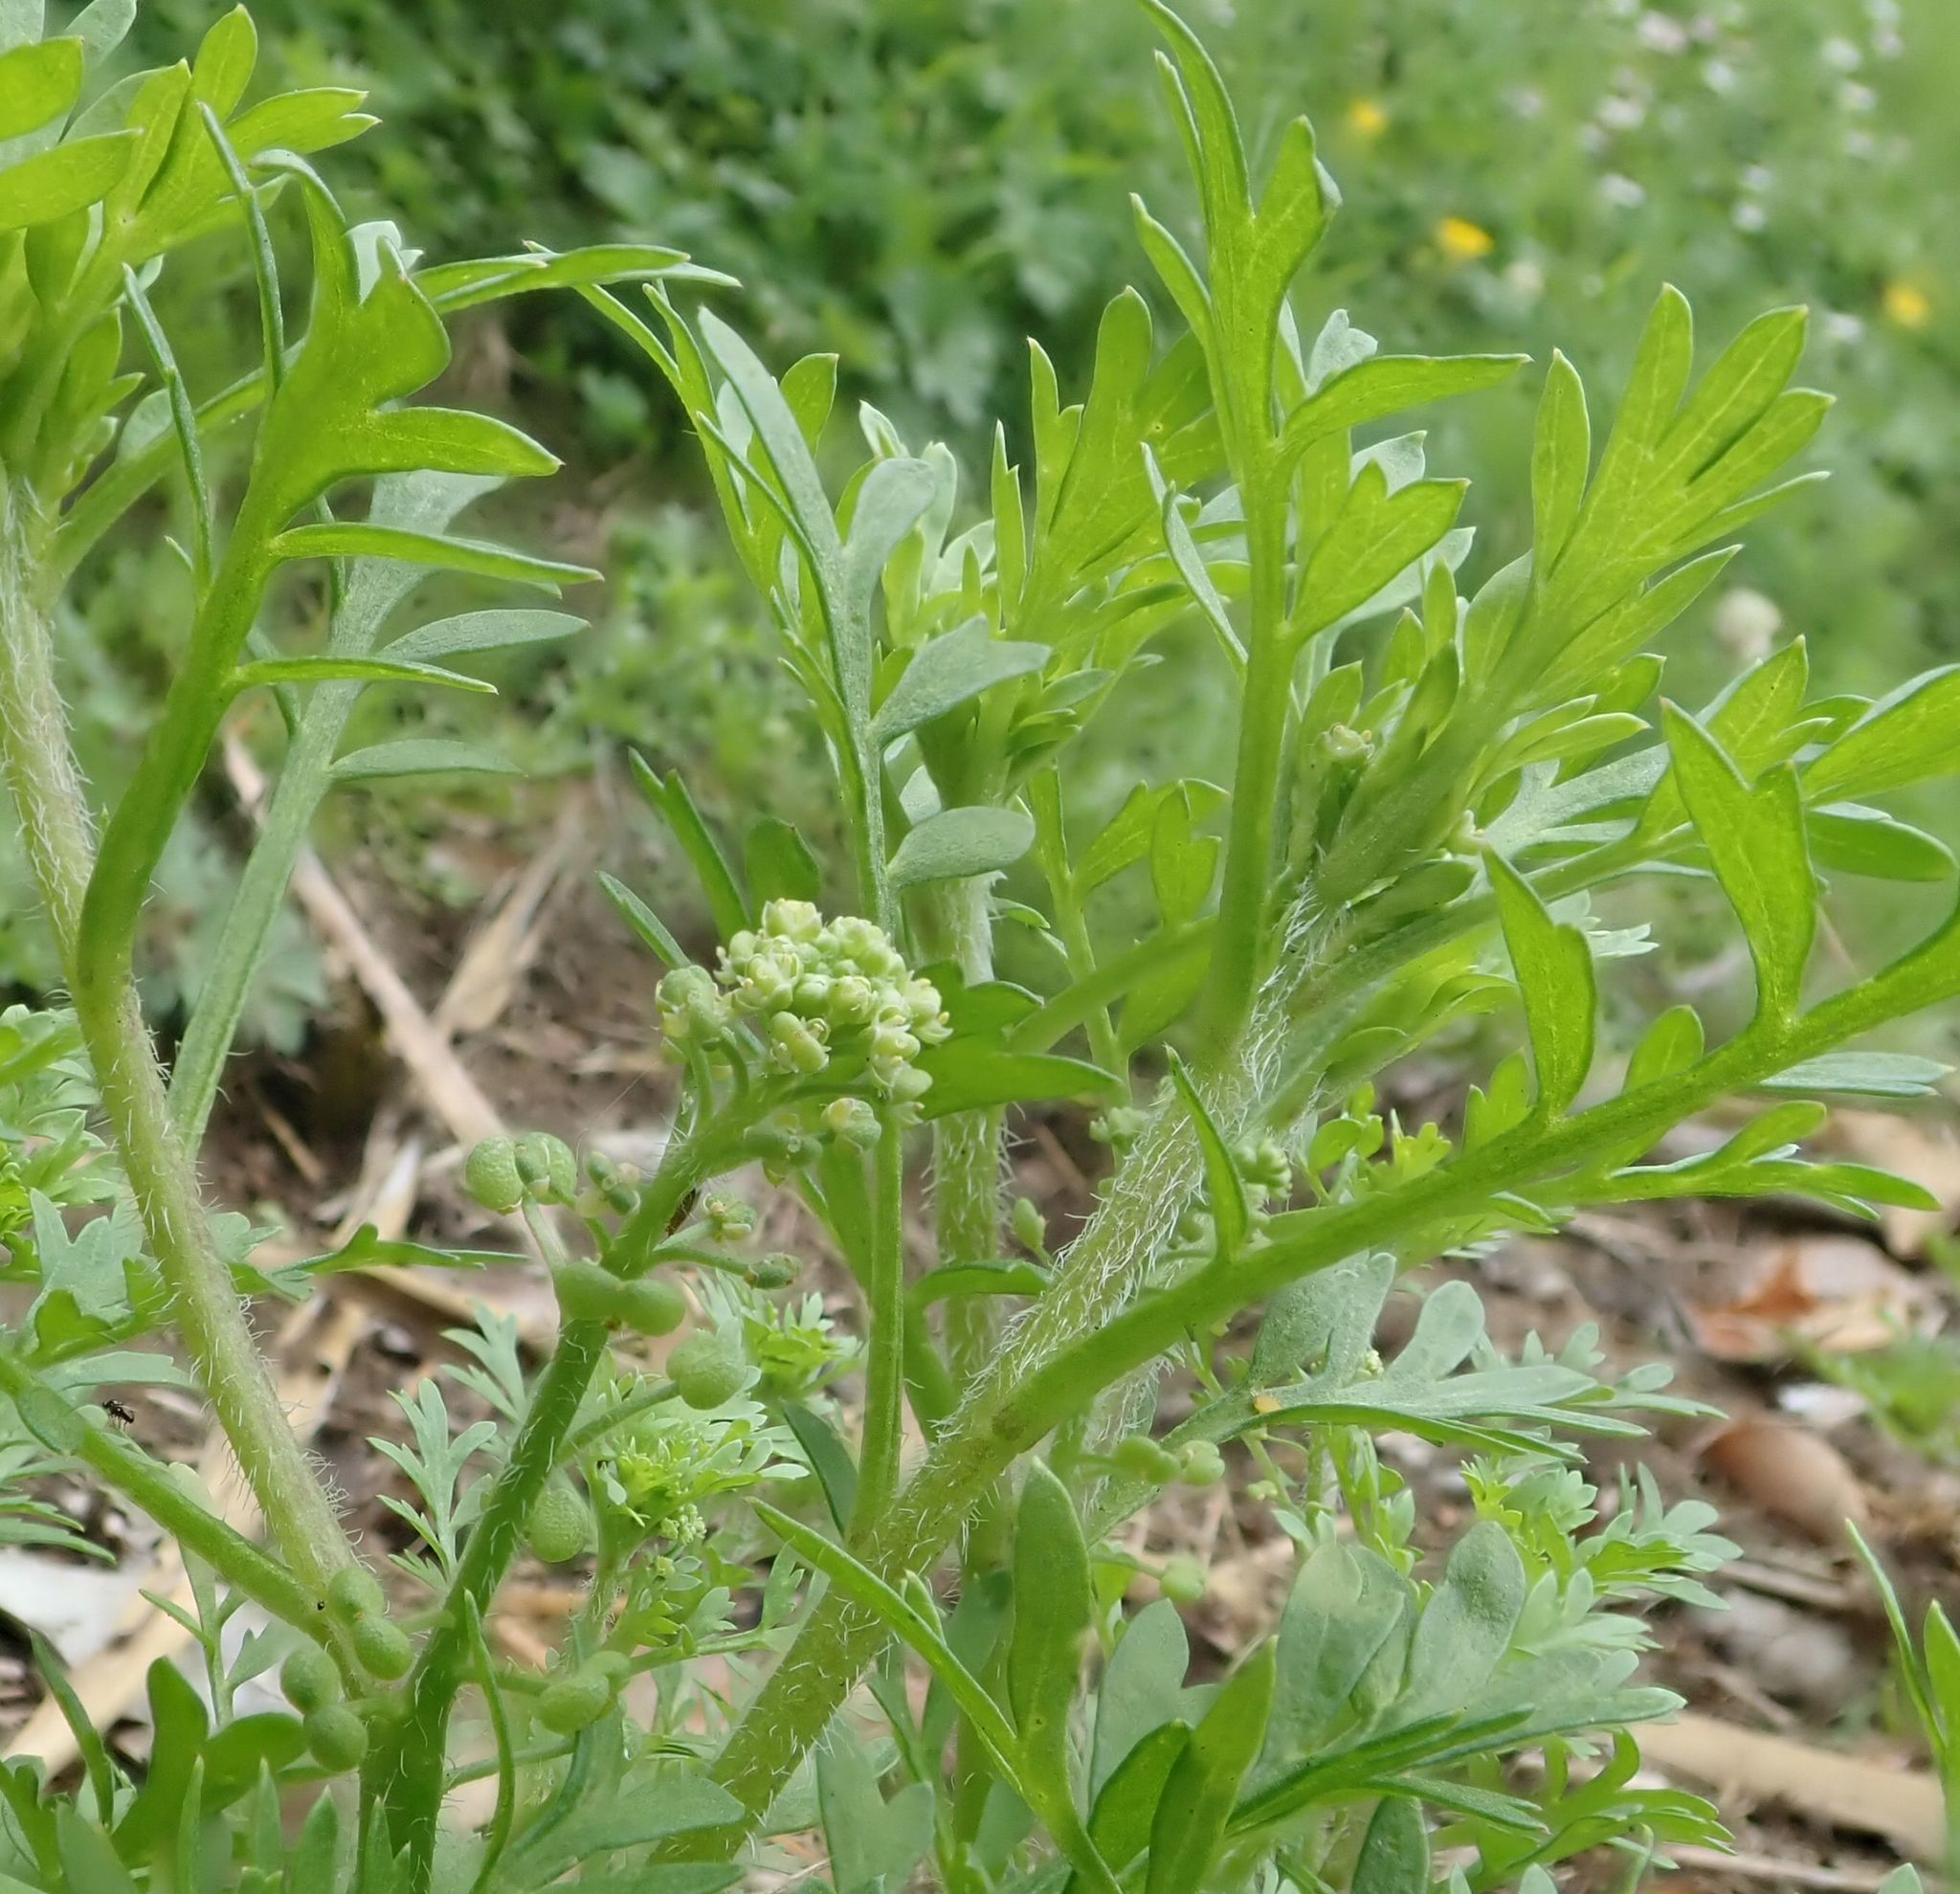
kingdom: Plantae
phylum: Tracheophyta
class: Magnoliopsida
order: Brassicales
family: Brassicaceae
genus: Lepidium
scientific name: Lepidium didymum
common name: Lesser swinecress
